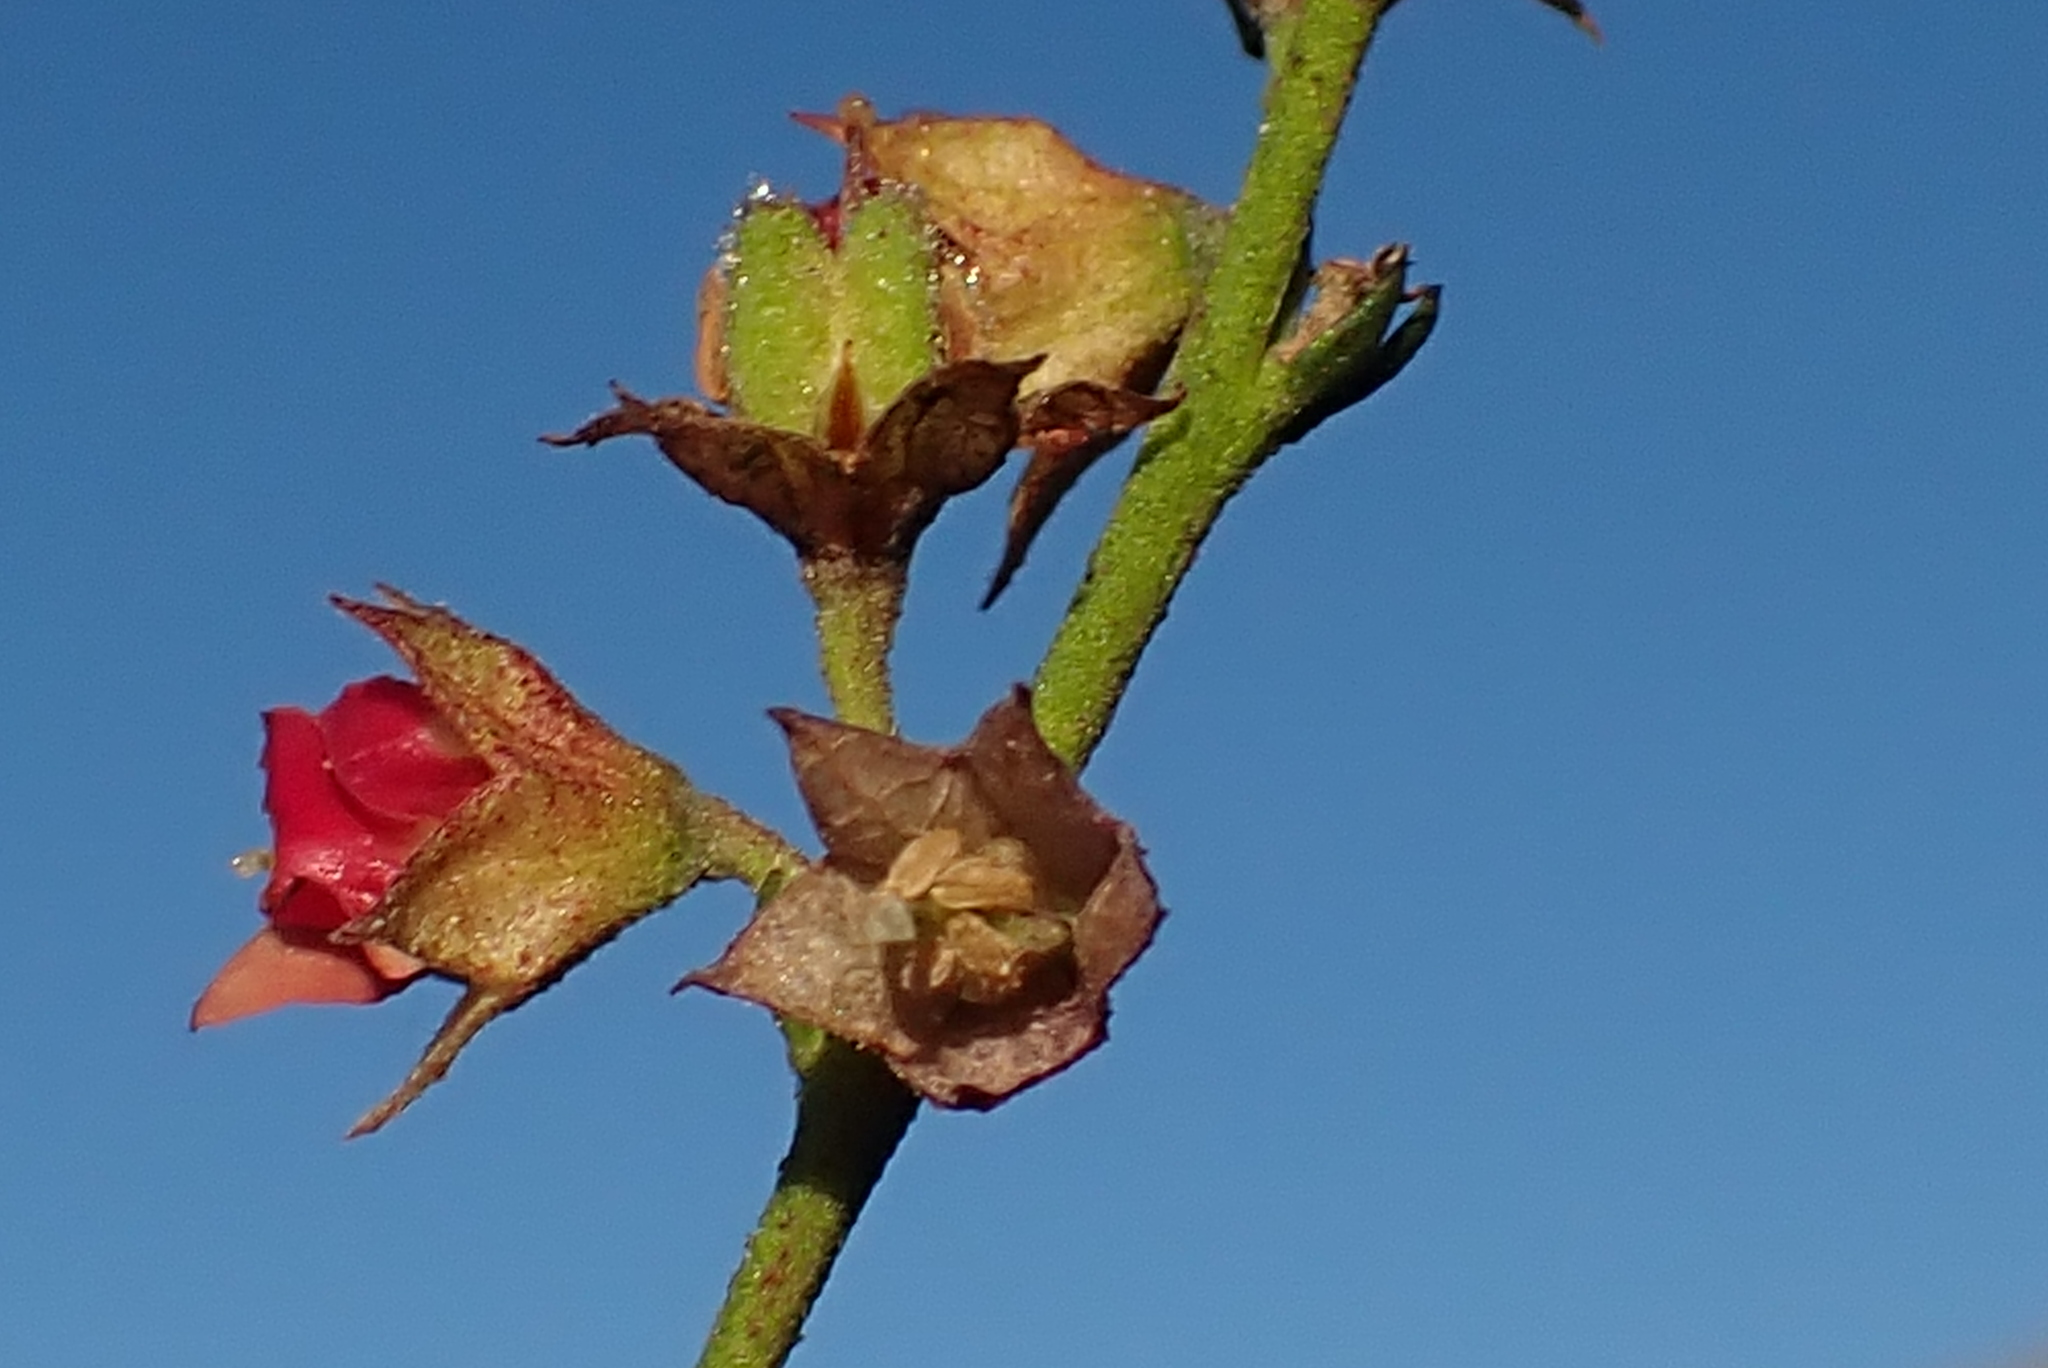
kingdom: Plantae
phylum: Tracheophyta
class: Magnoliopsida
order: Malvales
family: Malvaceae
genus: Hermannia
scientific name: Hermannia flammula
